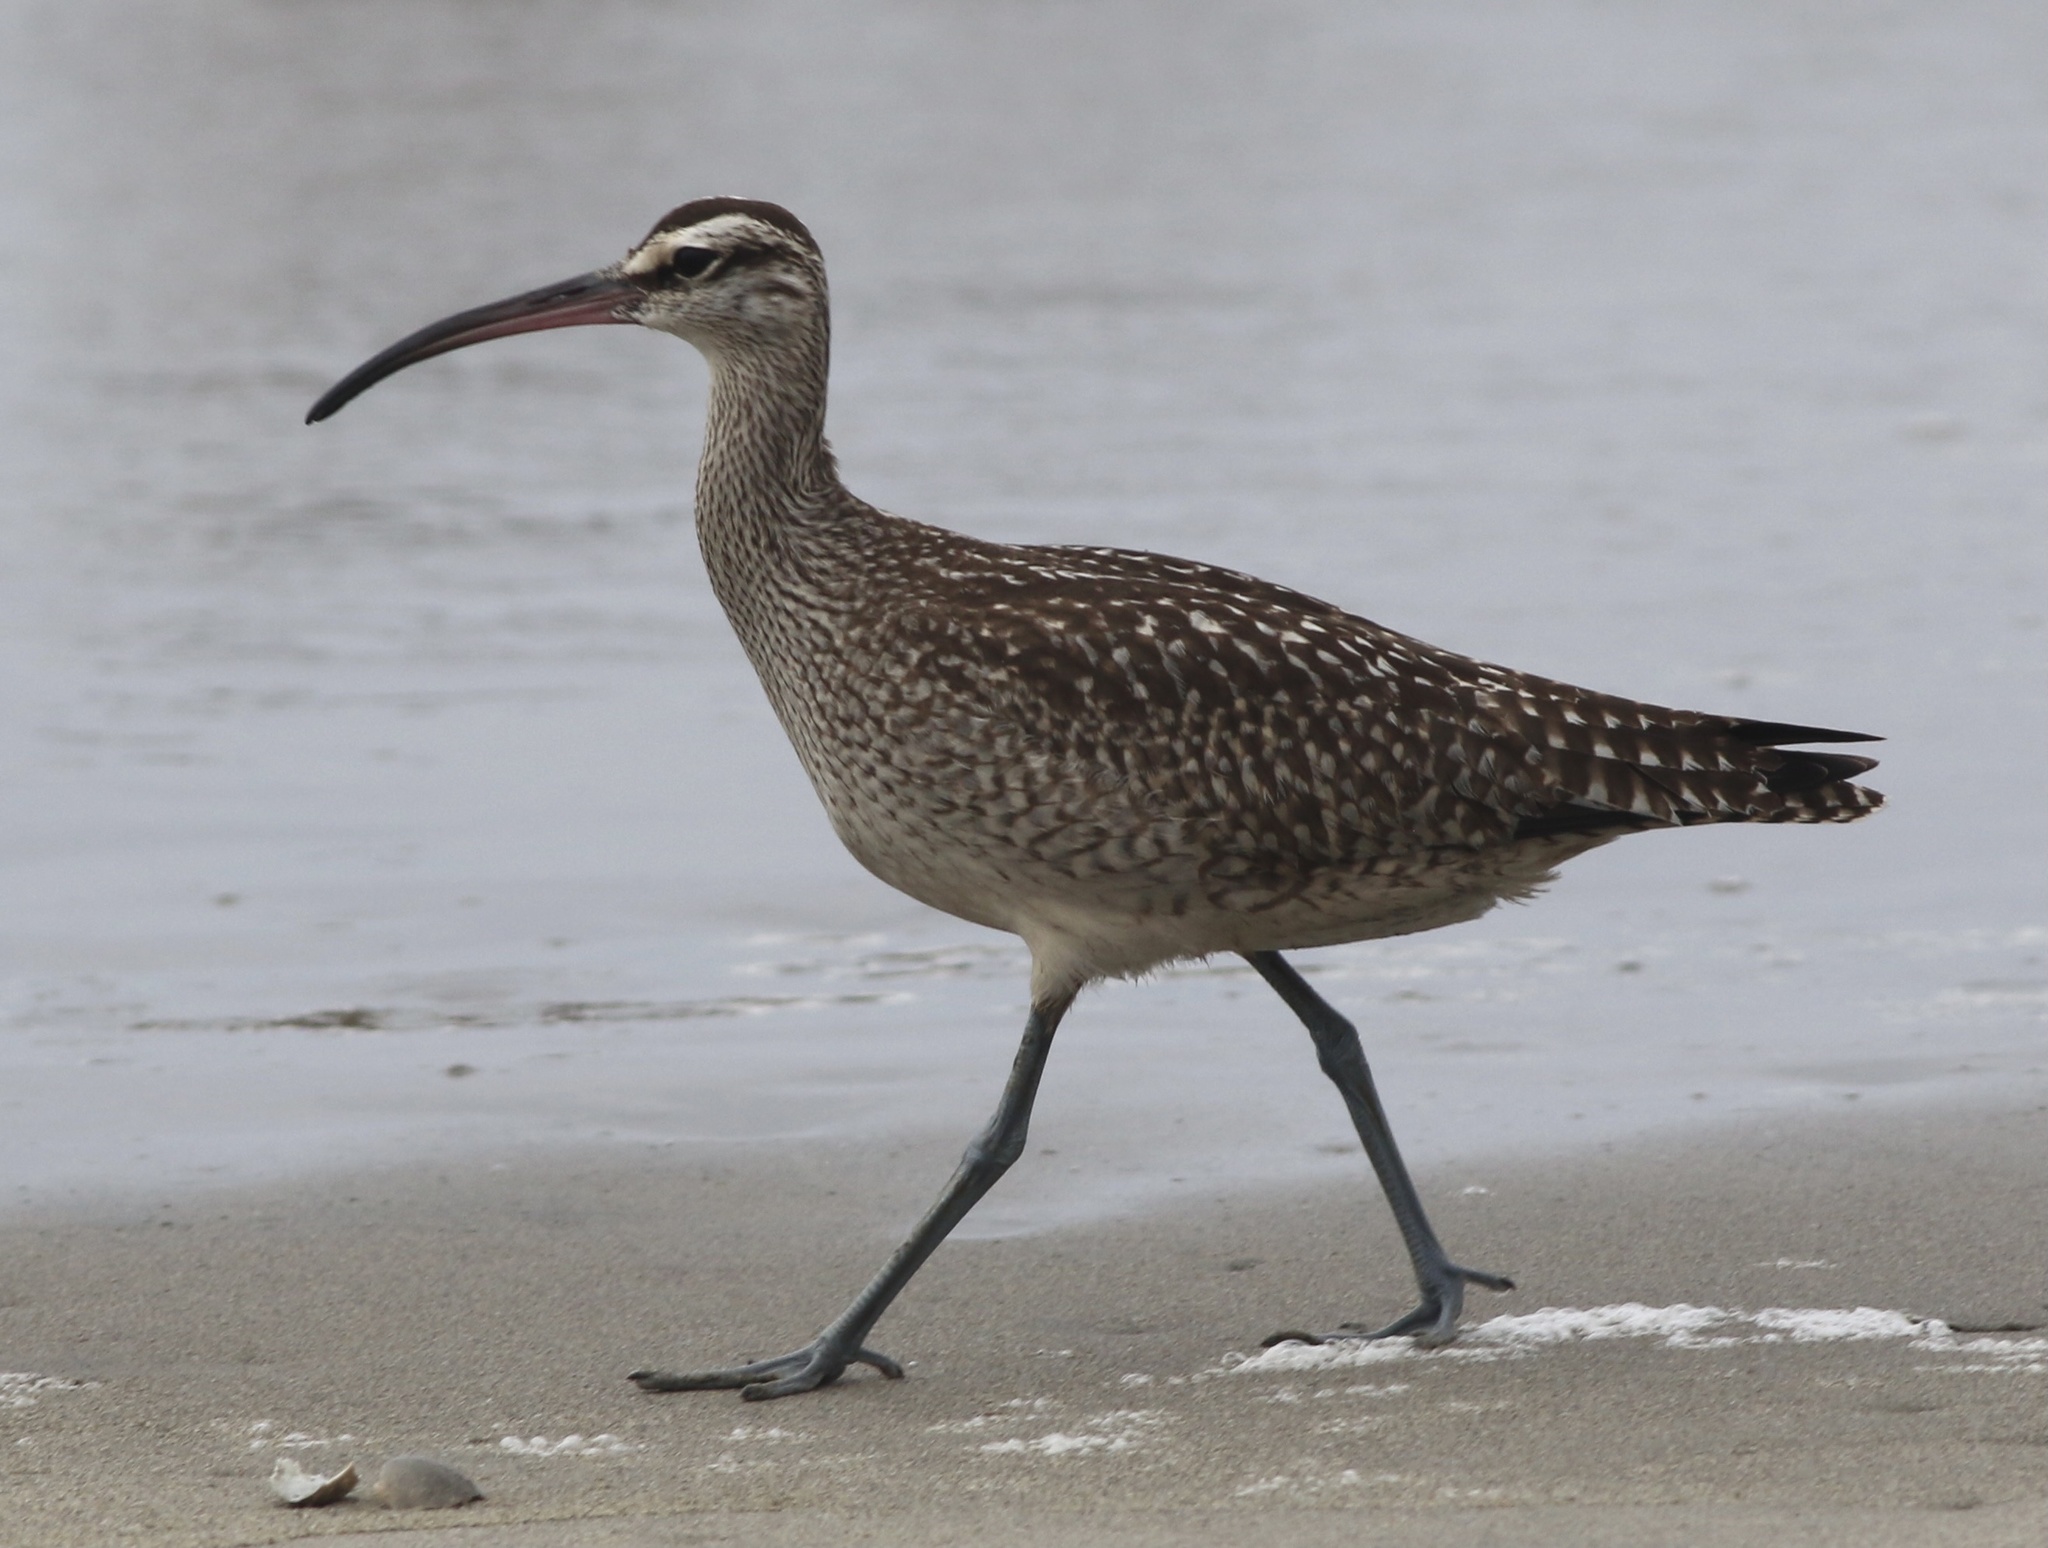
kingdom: Animalia
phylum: Chordata
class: Aves
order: Charadriiformes
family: Scolopacidae
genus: Numenius
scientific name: Numenius phaeopus
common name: Whimbrel
